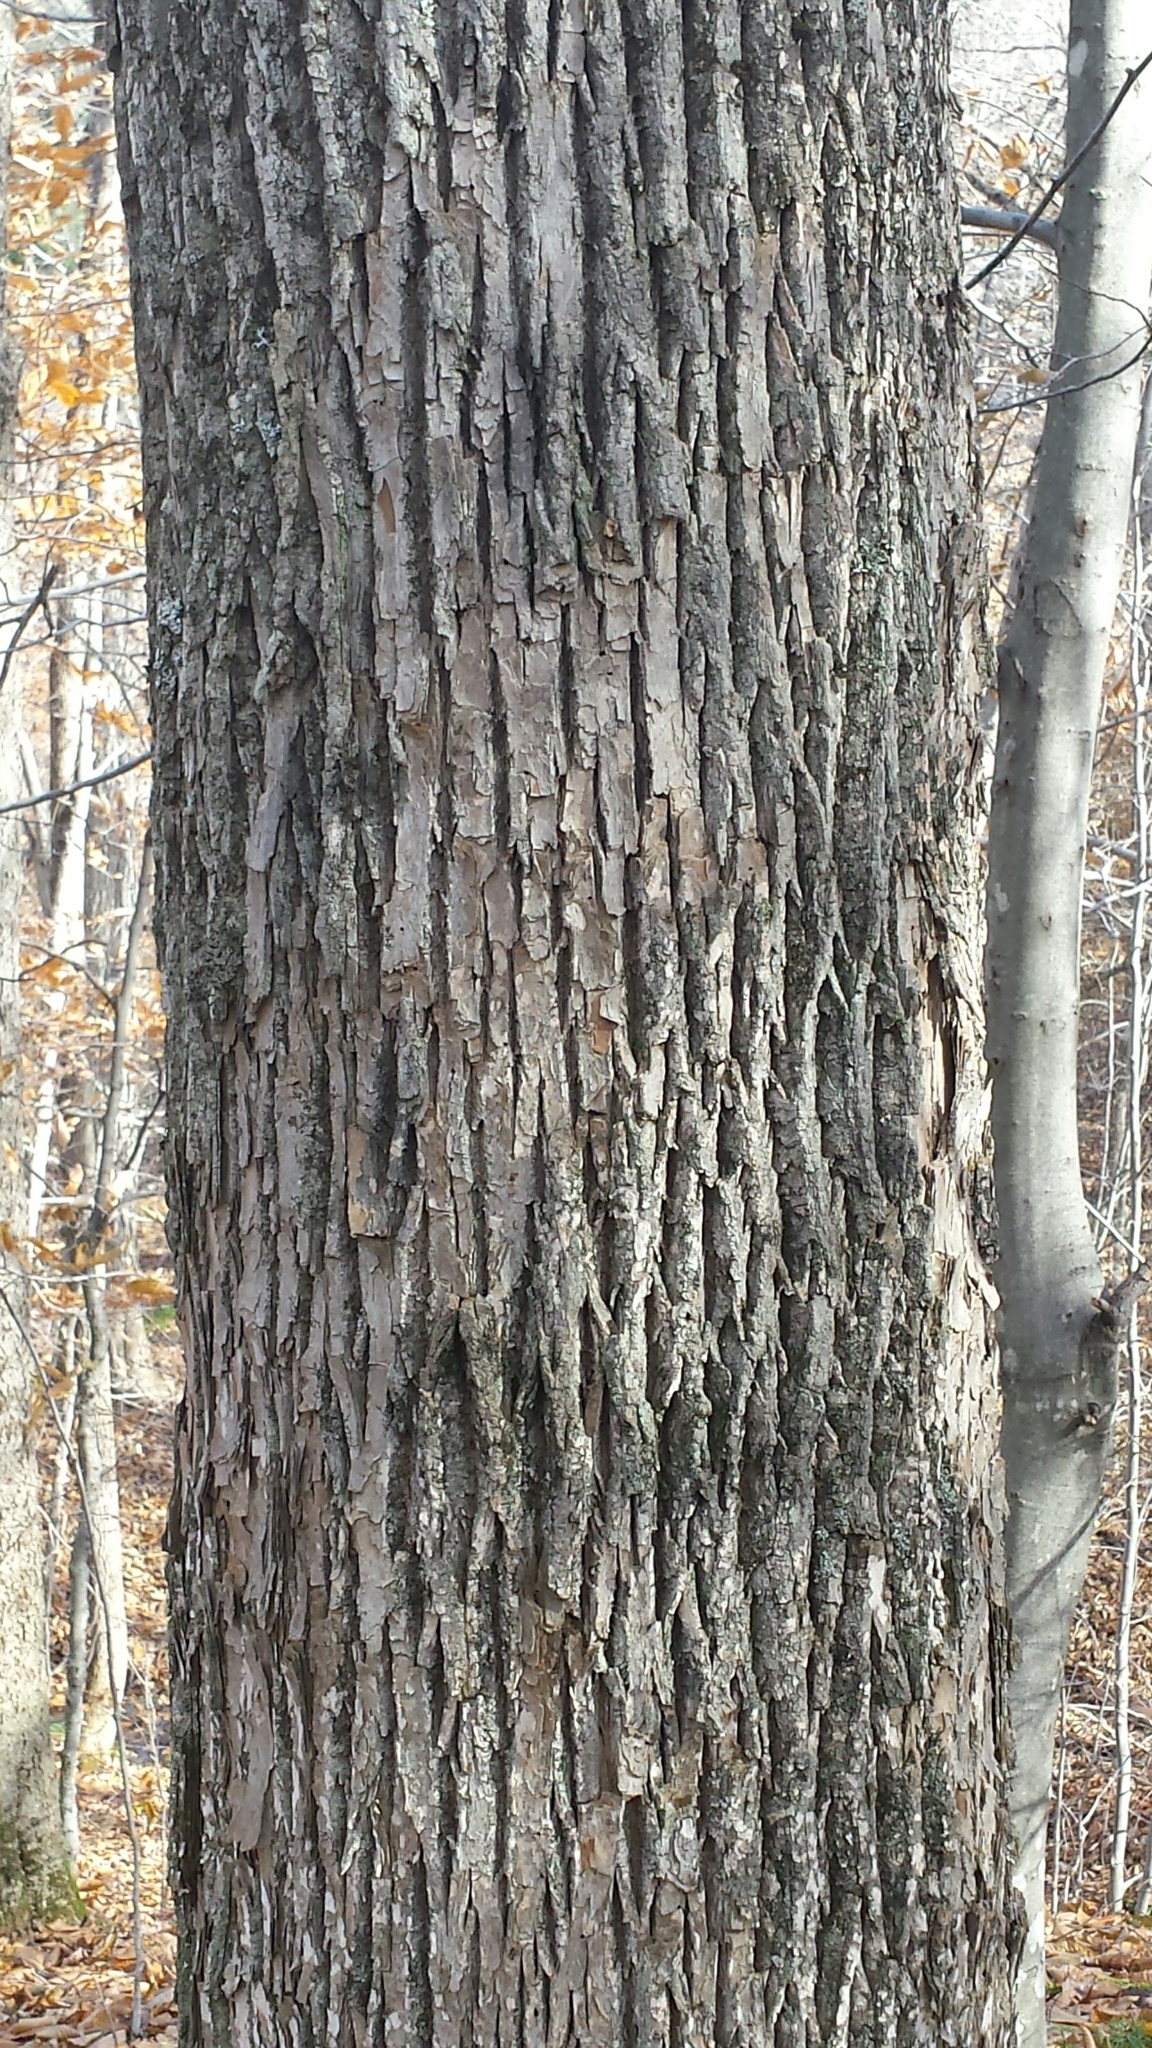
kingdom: Plantae
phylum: Tracheophyta
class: Magnoliopsida
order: Lamiales
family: Oleaceae
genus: Fraxinus
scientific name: Fraxinus americana
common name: White ash
